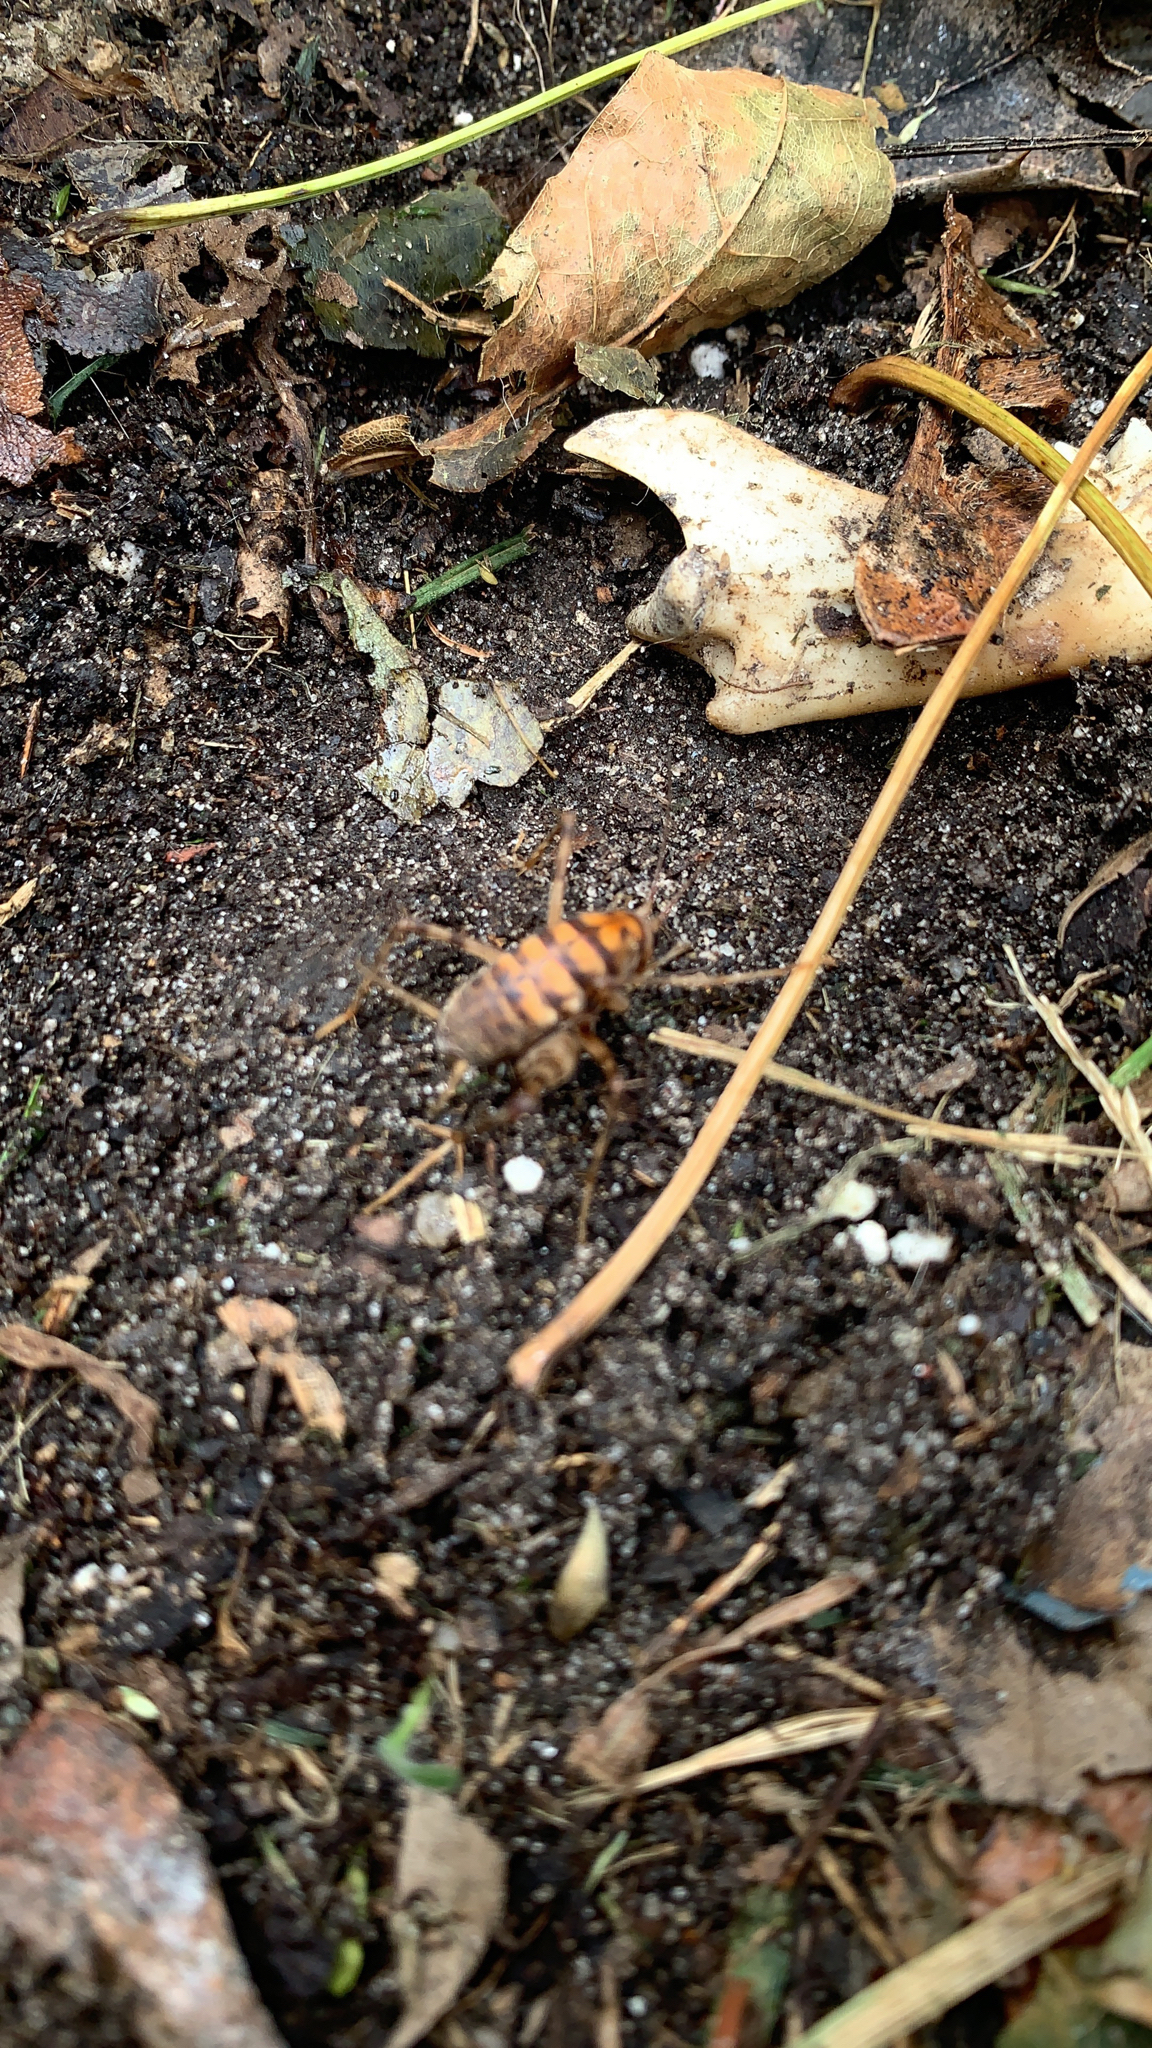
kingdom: Animalia
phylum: Arthropoda
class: Insecta
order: Orthoptera
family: Rhaphidophoridae
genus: Tachycines
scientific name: Tachycines asynamorus
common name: Greenhouse camel cricket
